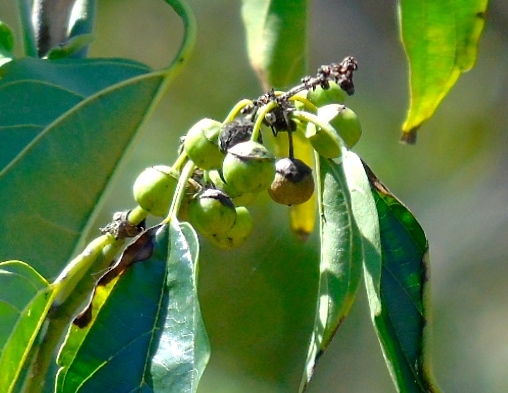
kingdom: Plantae
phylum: Tracheophyta
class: Magnoliopsida
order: Rosales
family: Rhamnaceae
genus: Colubrina
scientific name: Colubrina triflora
